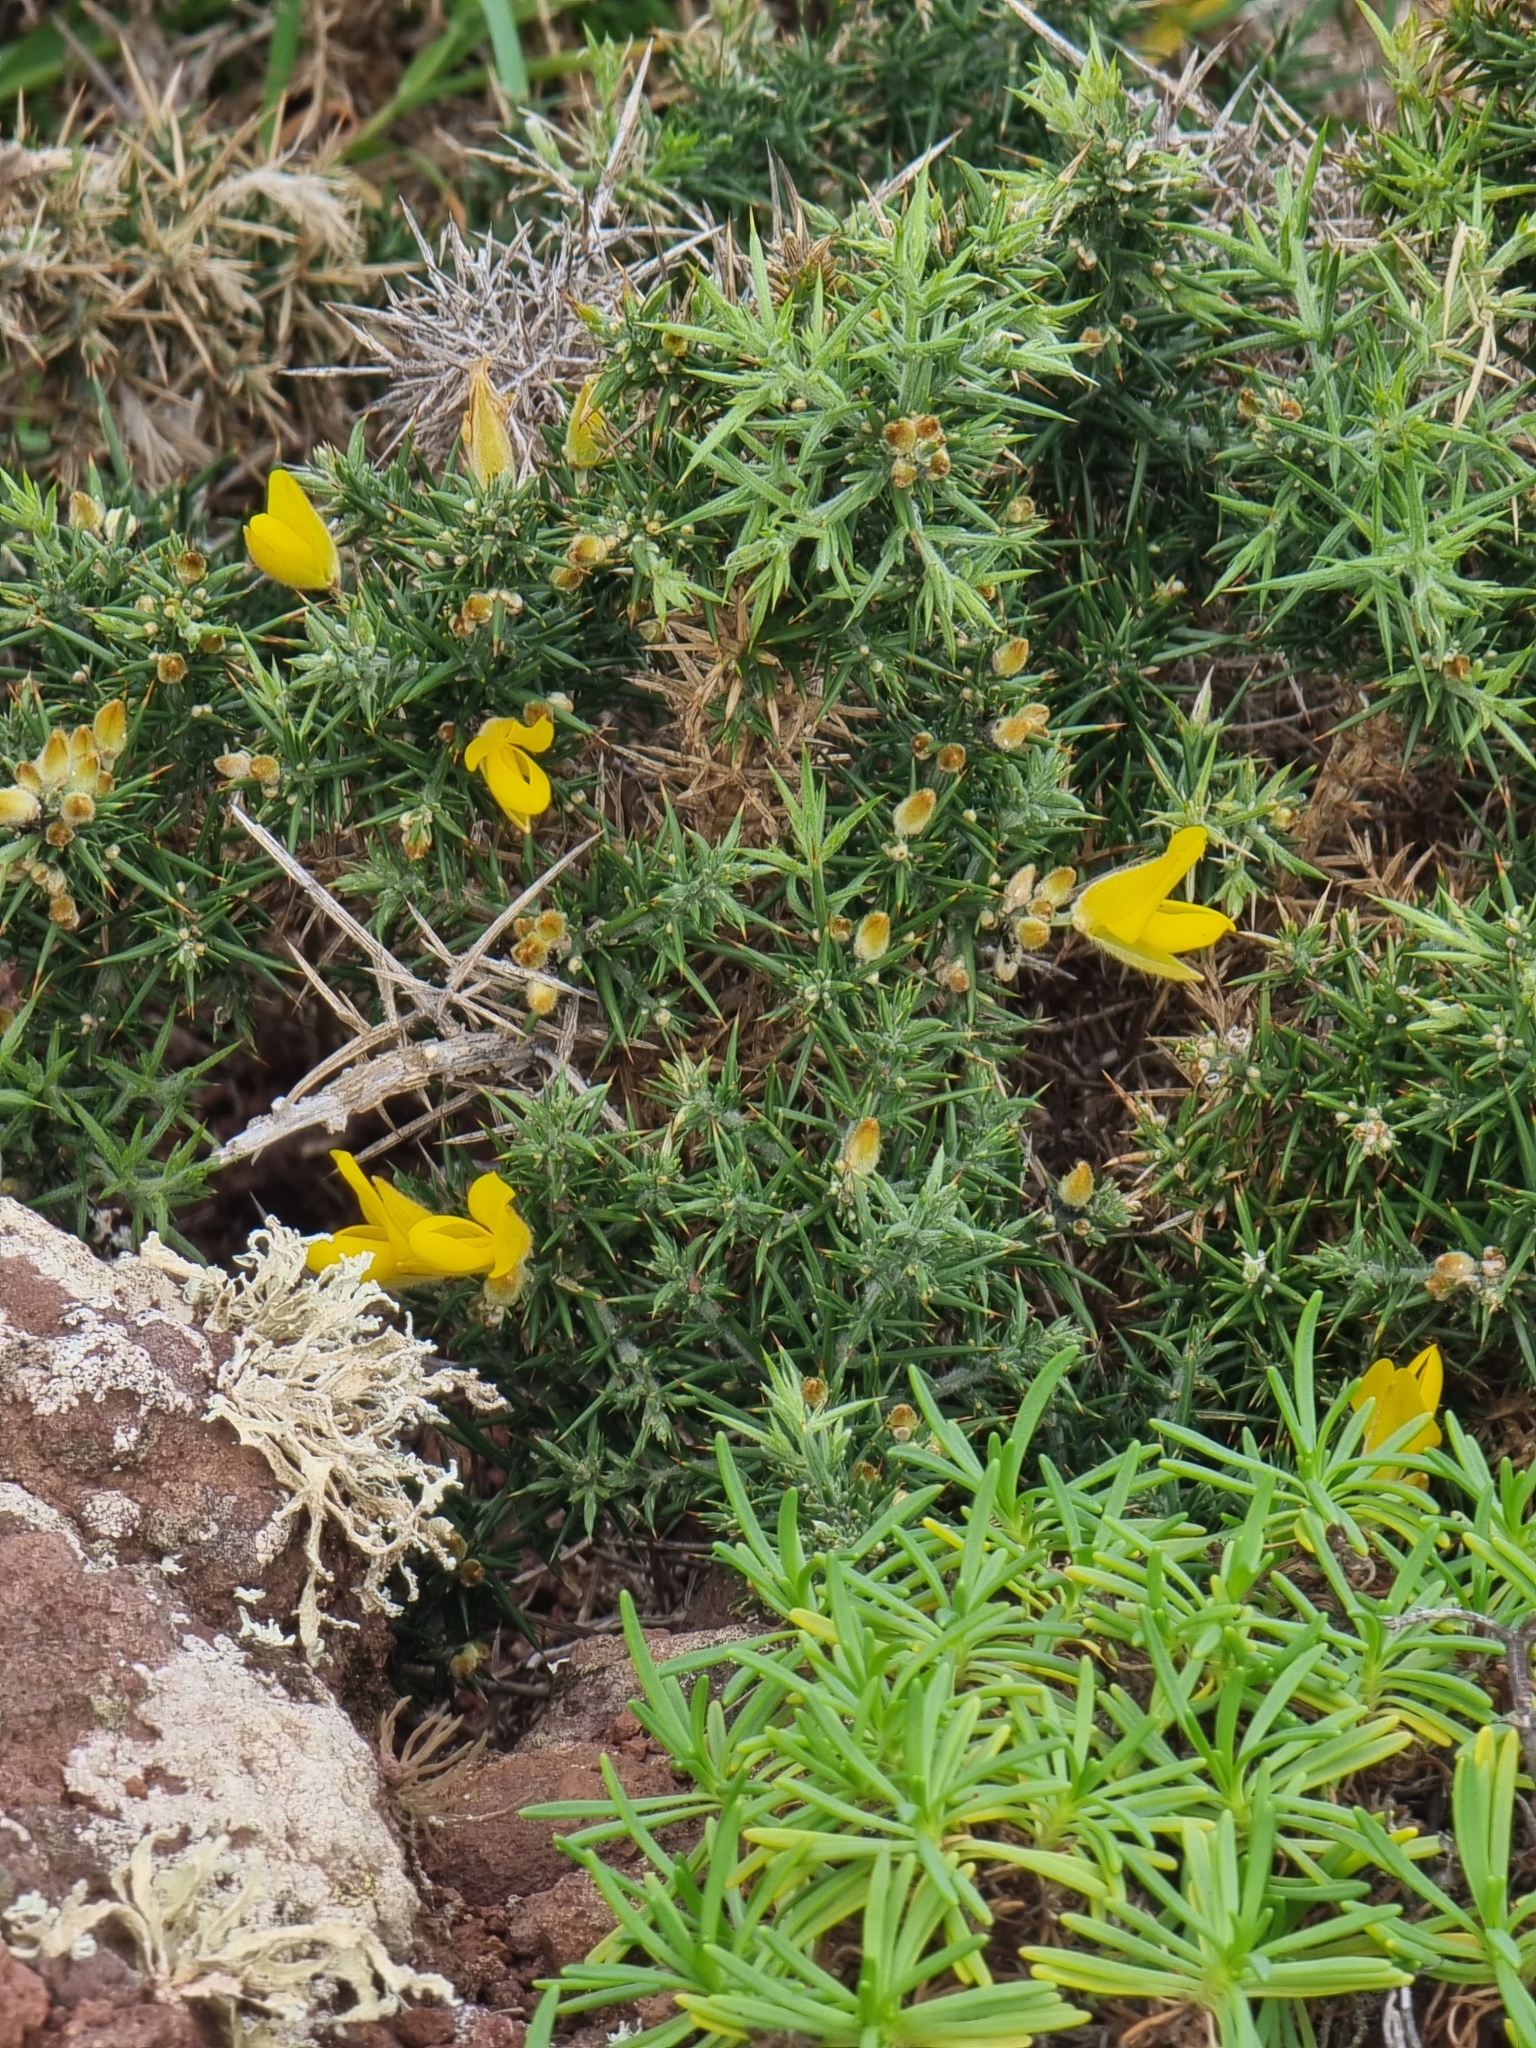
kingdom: Plantae
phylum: Tracheophyta
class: Magnoliopsida
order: Fabales
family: Fabaceae
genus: Ulex
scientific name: Ulex europaeus
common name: Common gorse
